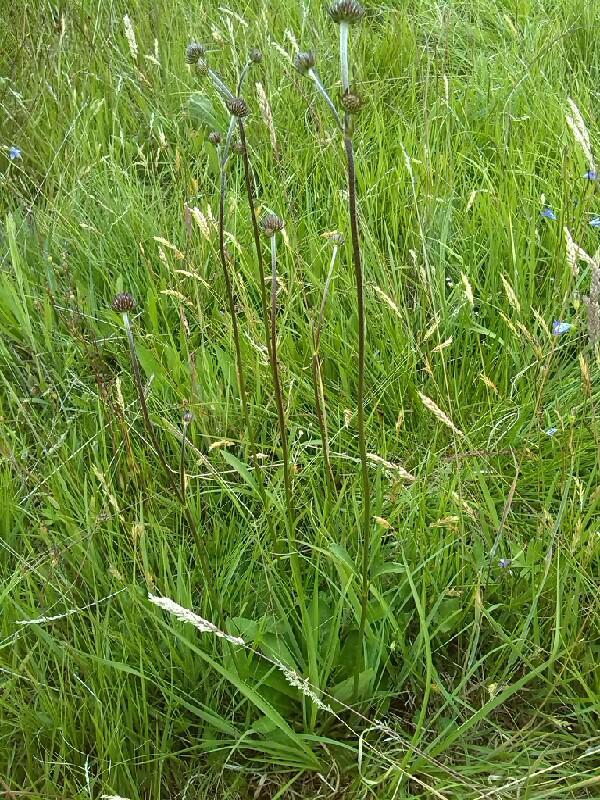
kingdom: Plantae
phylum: Tracheophyta
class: Magnoliopsida
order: Dipsacales
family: Caprifoliaceae
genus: Succisa
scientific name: Succisa pratensis
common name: Devil's-bit
